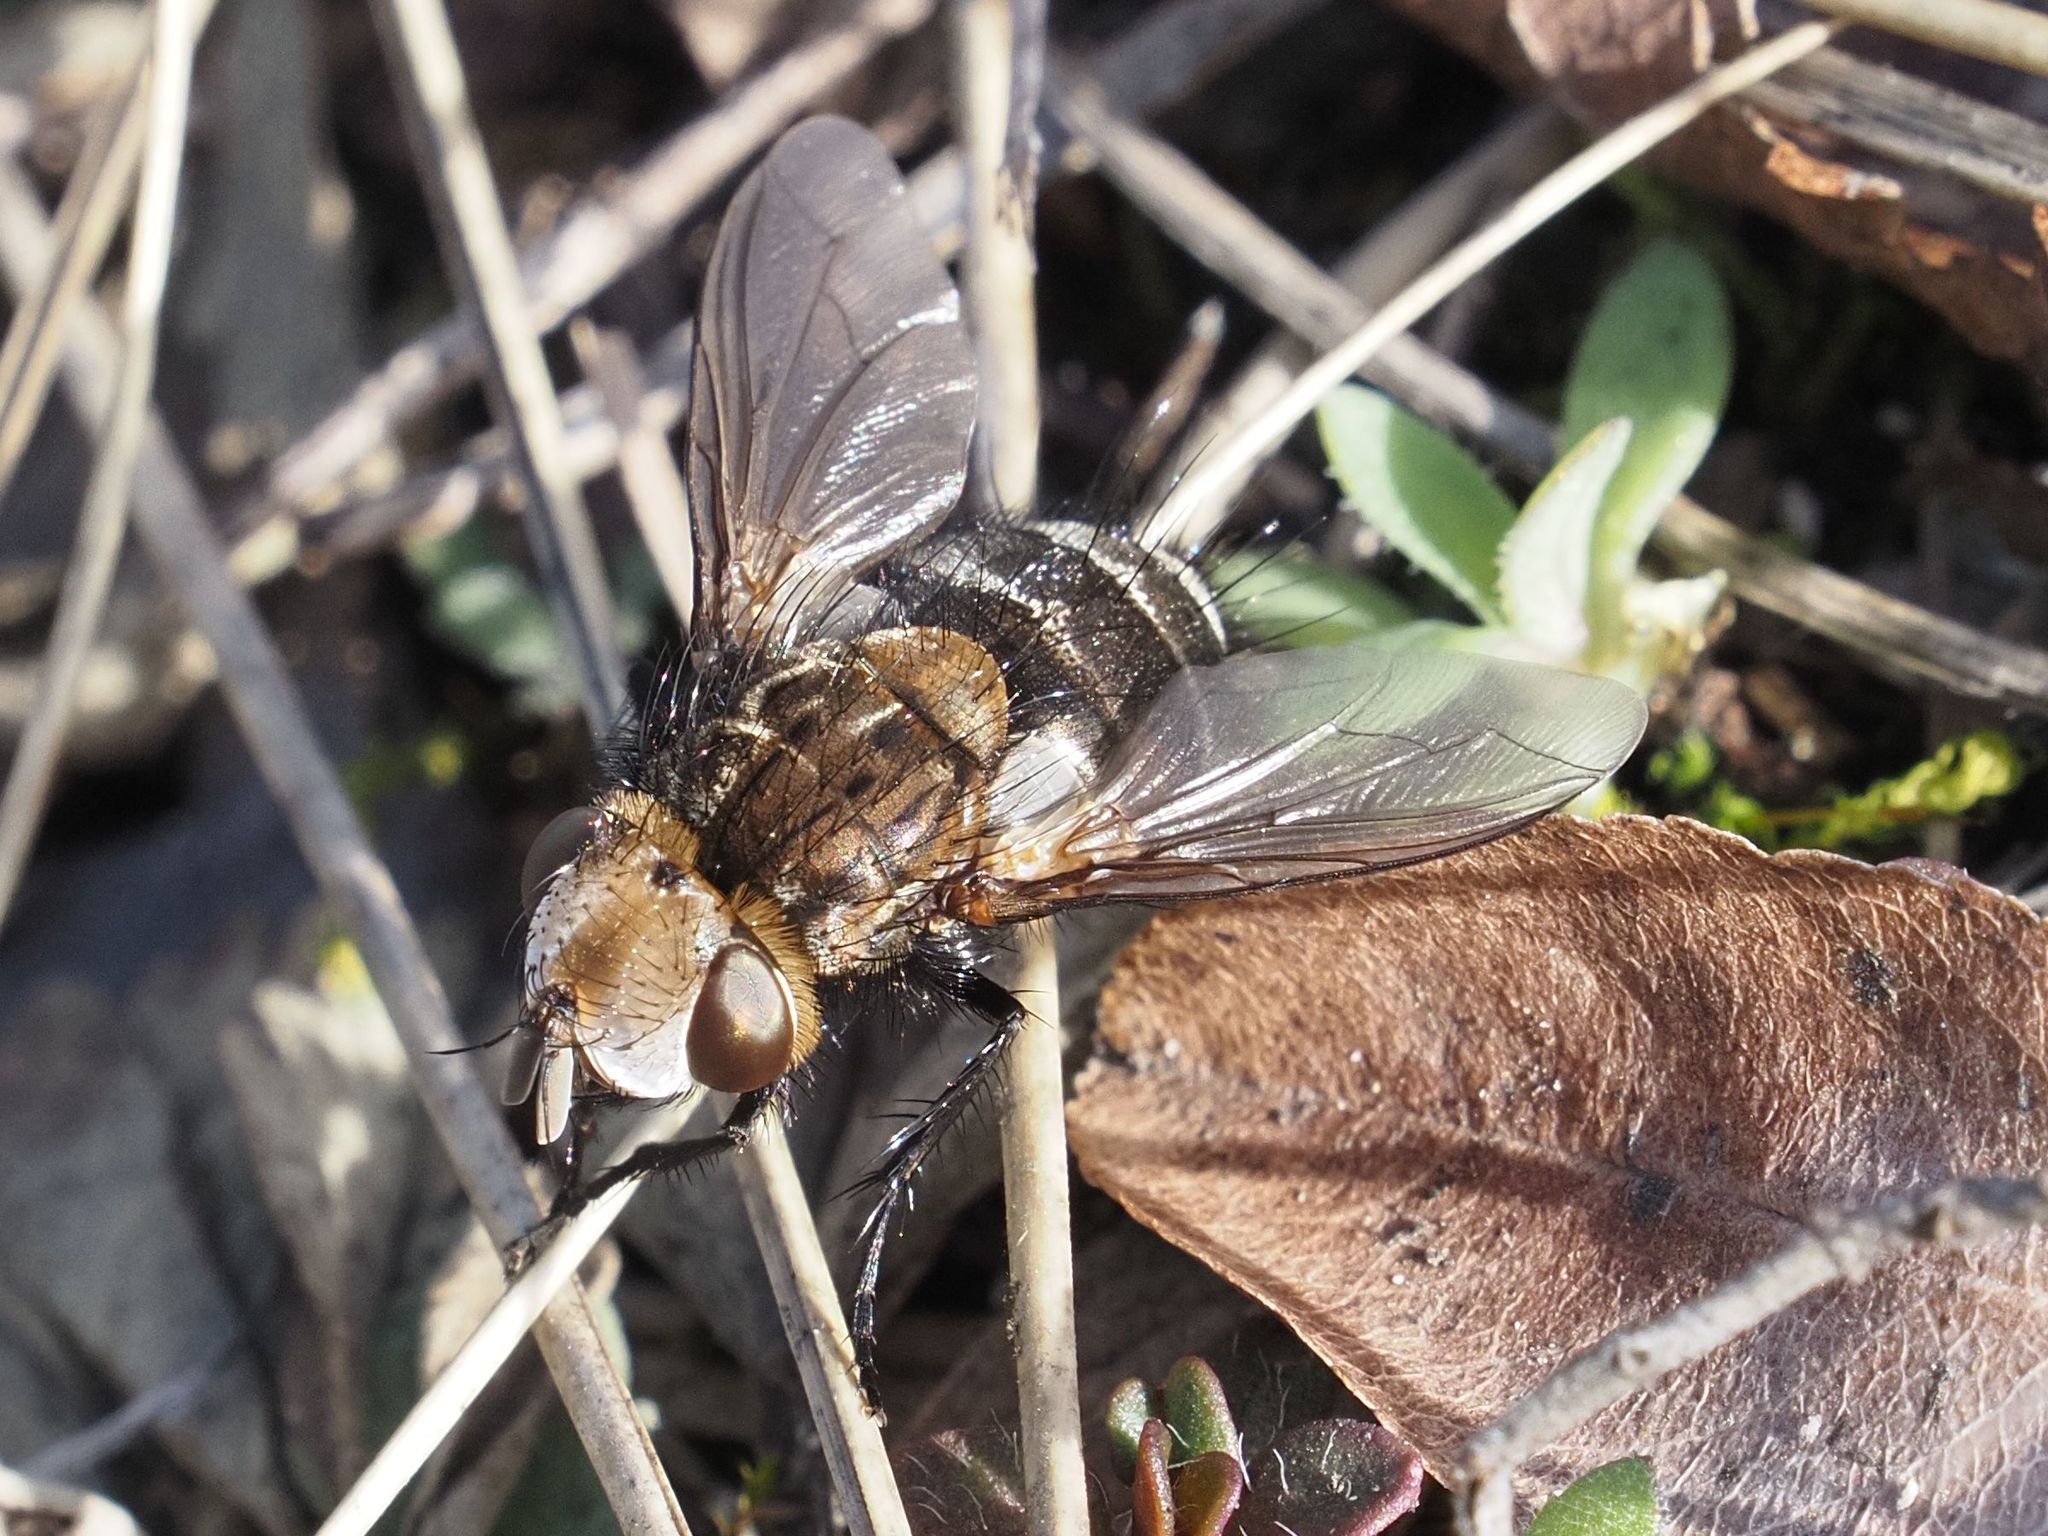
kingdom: Animalia
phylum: Arthropoda
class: Insecta
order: Diptera
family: Tachinidae
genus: Gonia
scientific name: Gonia picea
